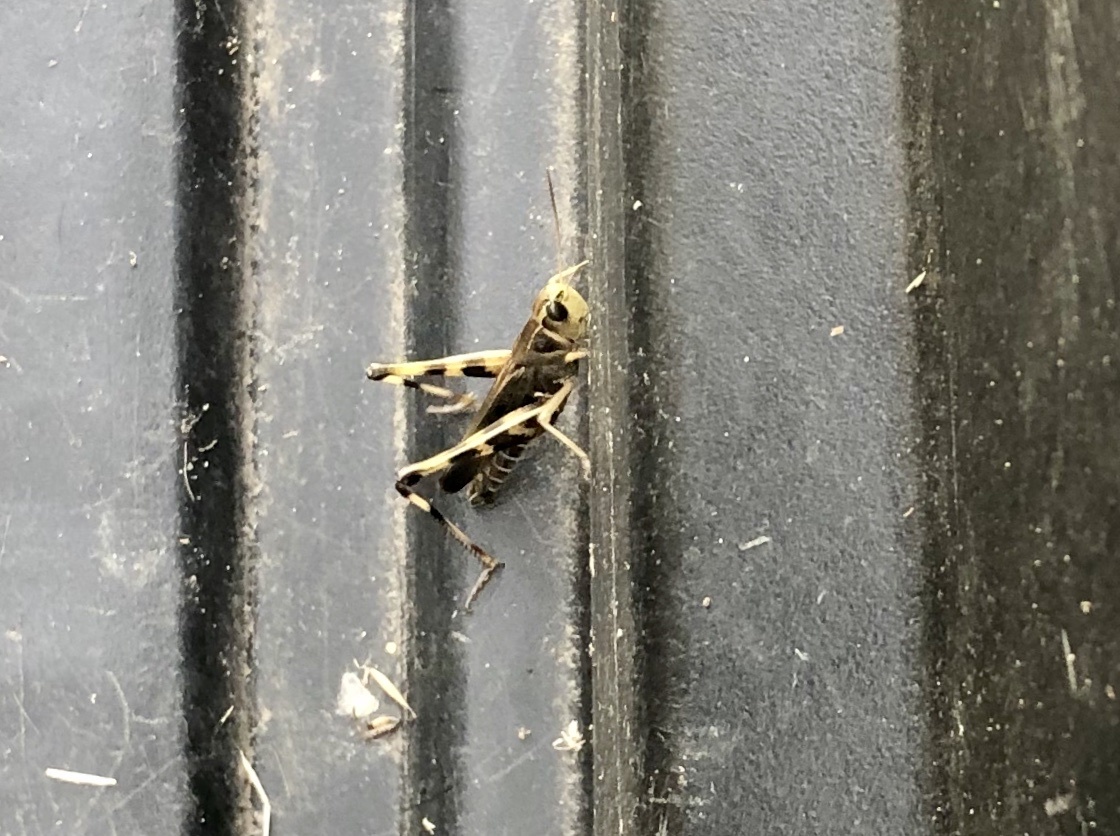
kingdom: Animalia
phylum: Arthropoda
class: Insecta
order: Orthoptera
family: Acrididae
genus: Boopedon
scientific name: Boopedon gracile
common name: Graceful range grasshopper
